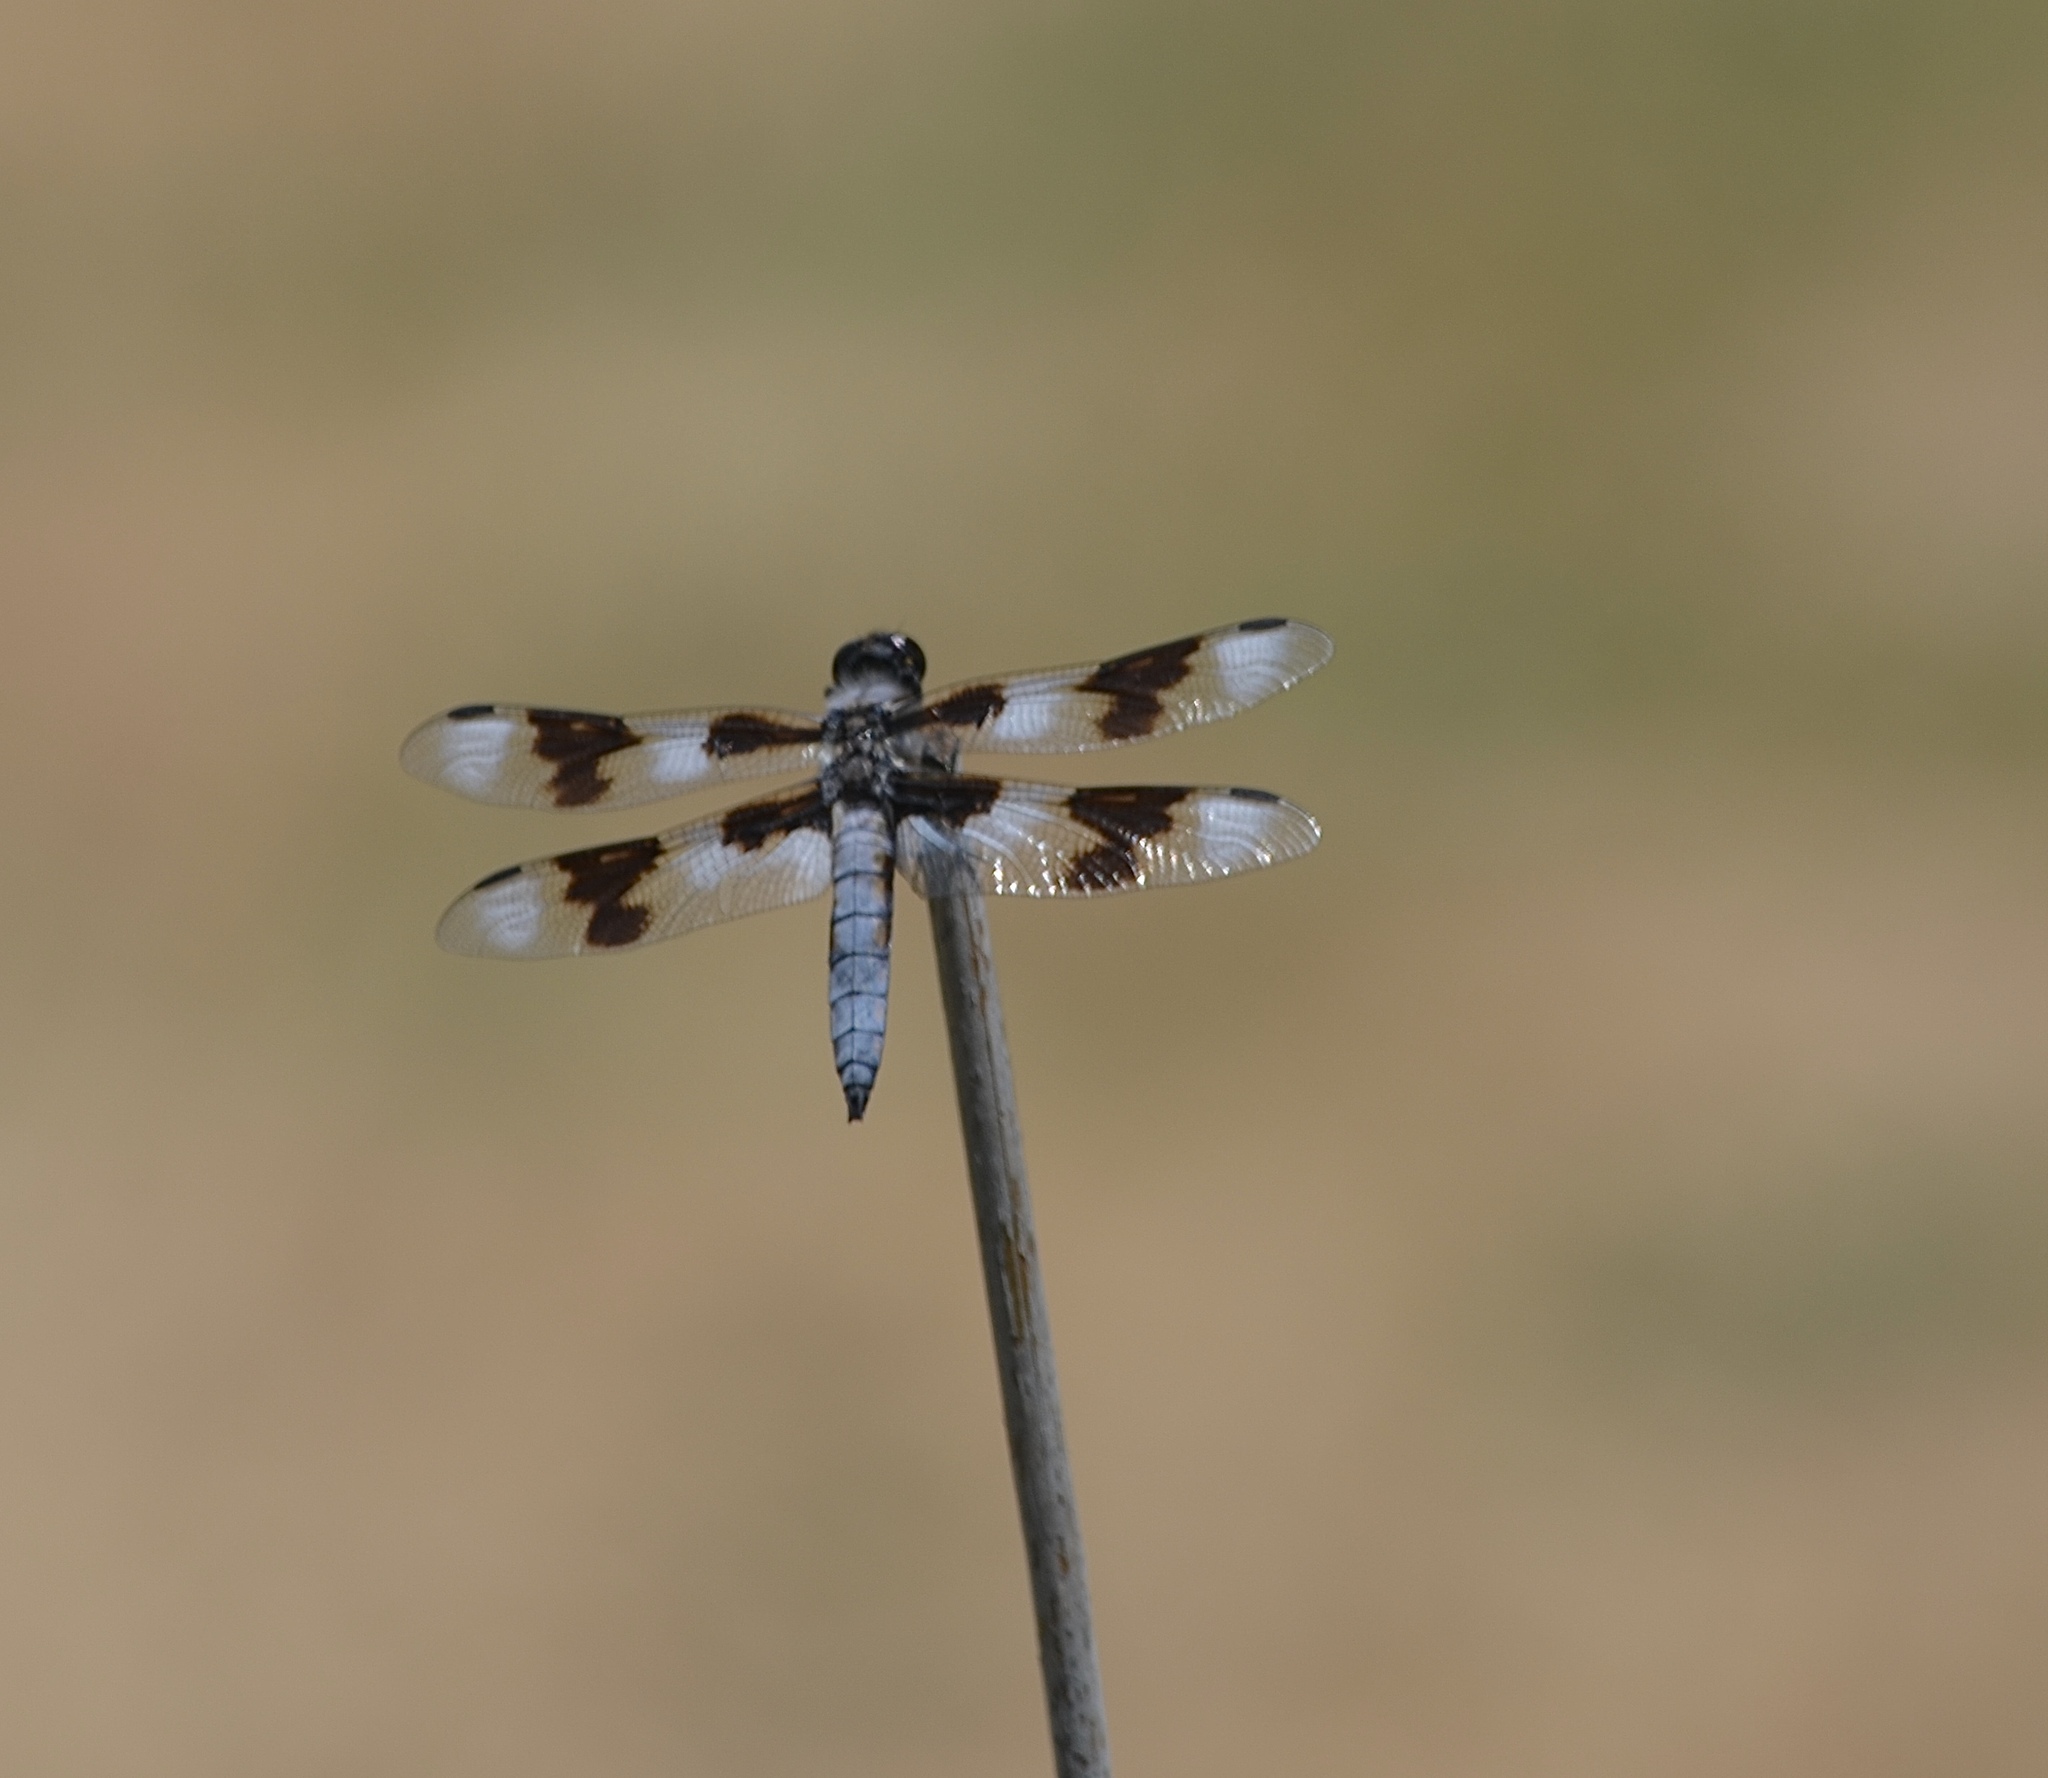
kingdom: Animalia
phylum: Arthropoda
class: Insecta
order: Odonata
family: Libellulidae
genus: Libellula
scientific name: Libellula forensis
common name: Eight-spotted skimmer
